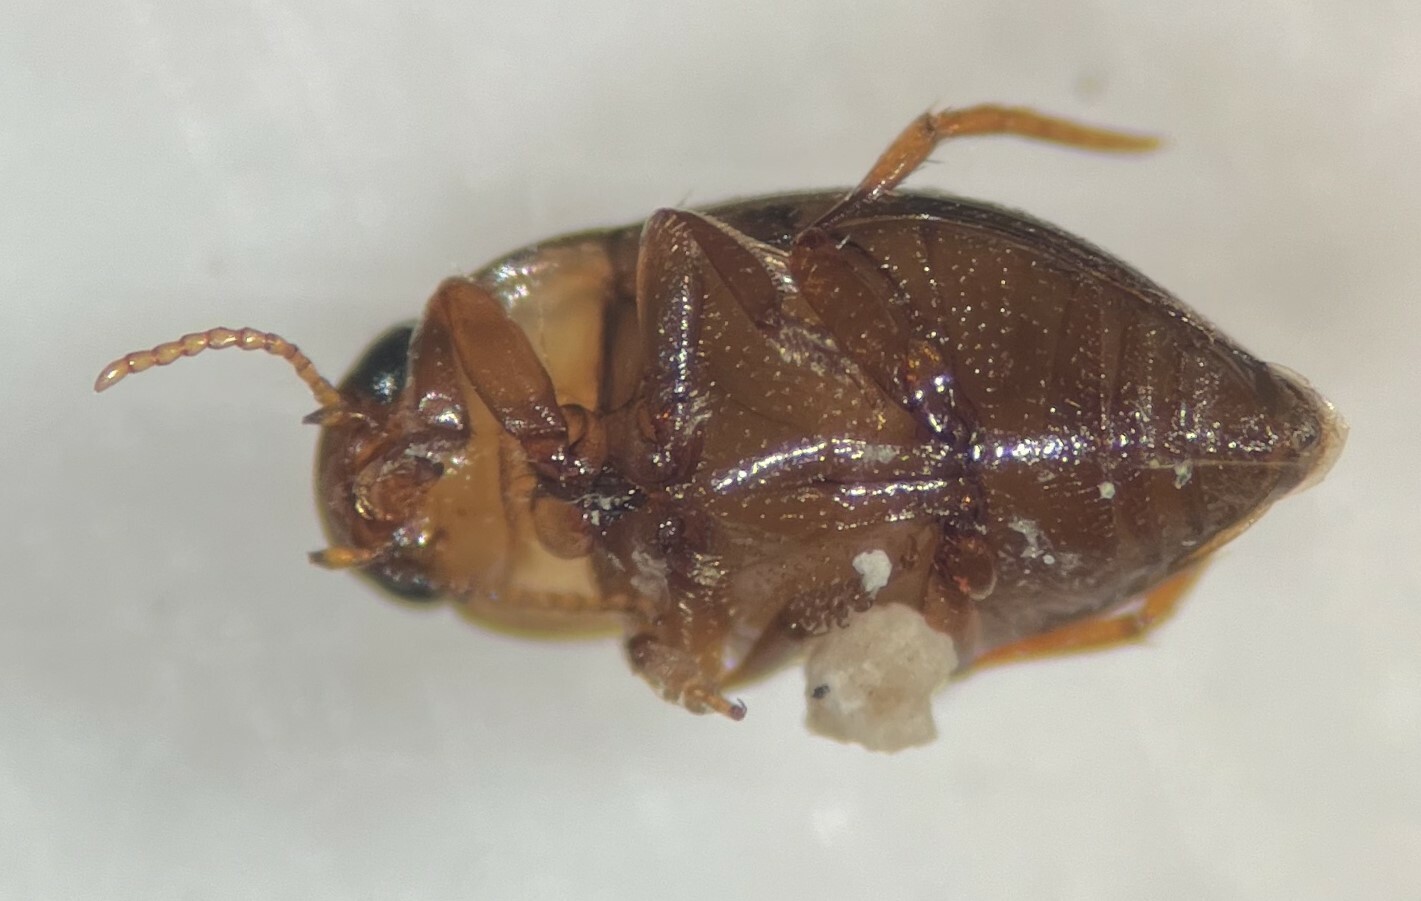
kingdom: Animalia
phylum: Arthropoda
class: Insecta
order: Coleoptera
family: Dytiscidae
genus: Neoclypeodytes
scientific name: Neoclypeodytes discretus
